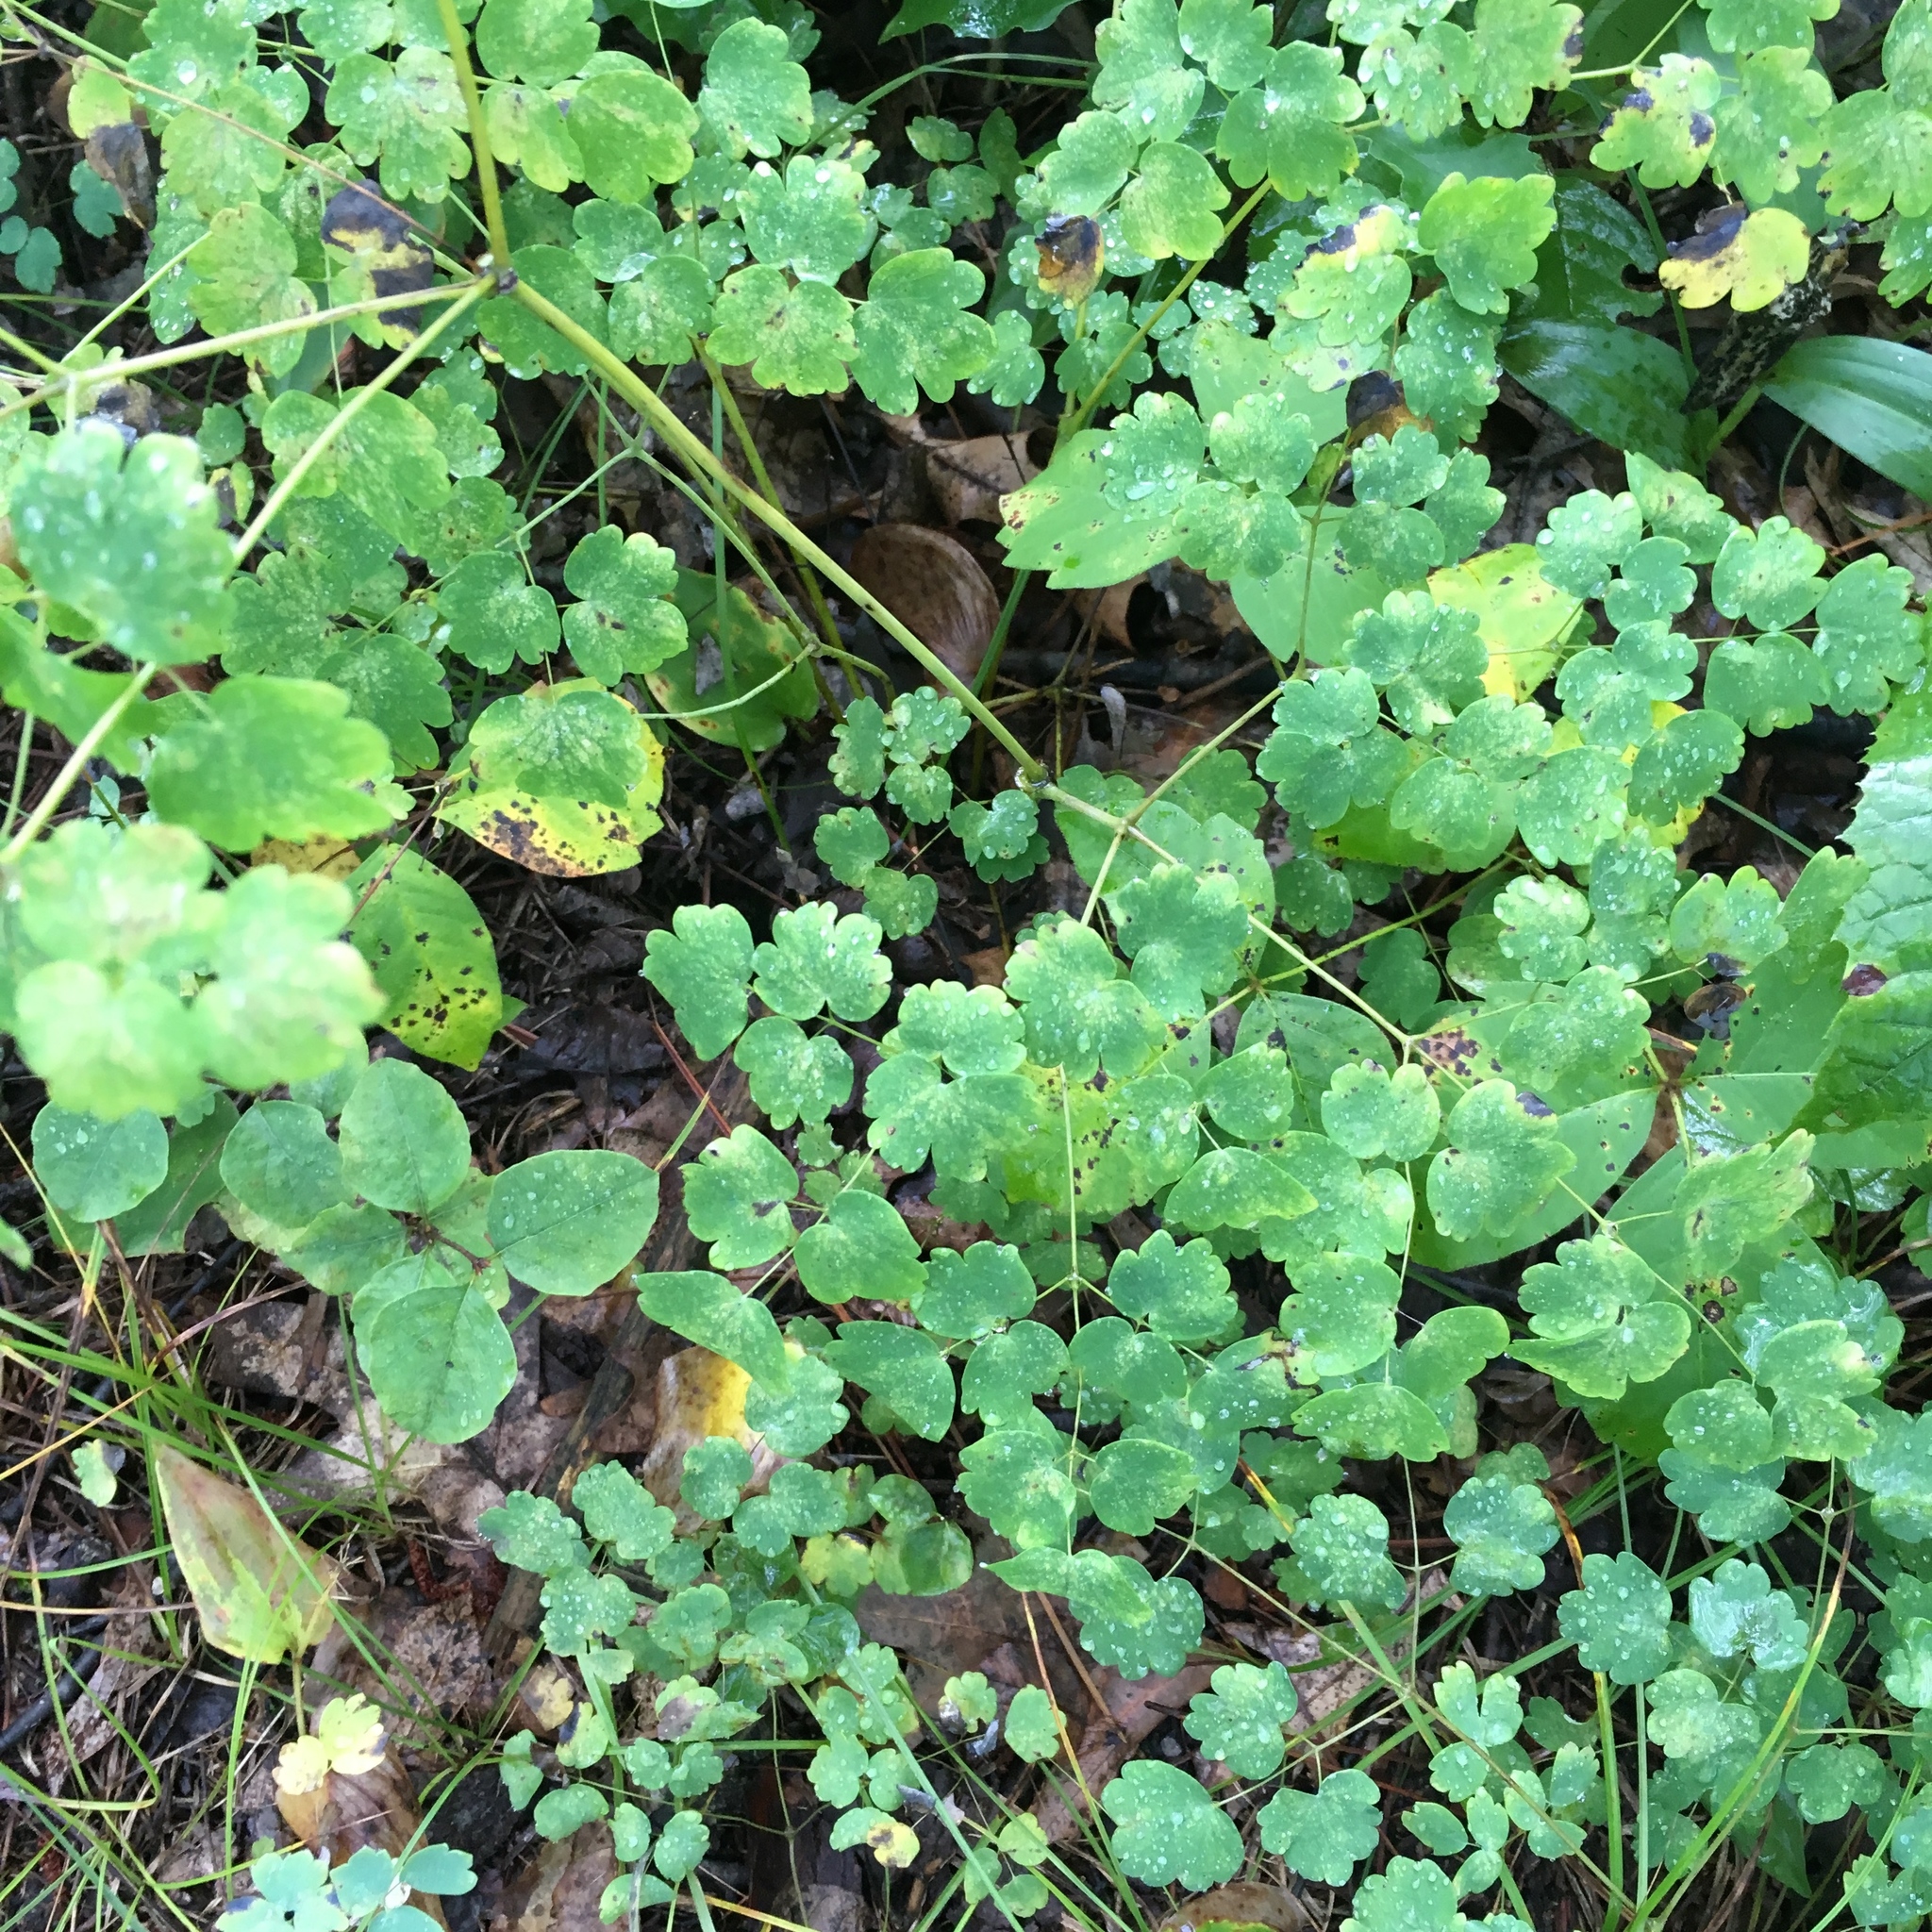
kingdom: Plantae
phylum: Tracheophyta
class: Magnoliopsida
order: Ranunculales
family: Ranunculaceae
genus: Thalictrum
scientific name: Thalictrum dioicum
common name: Early meadow-rue
